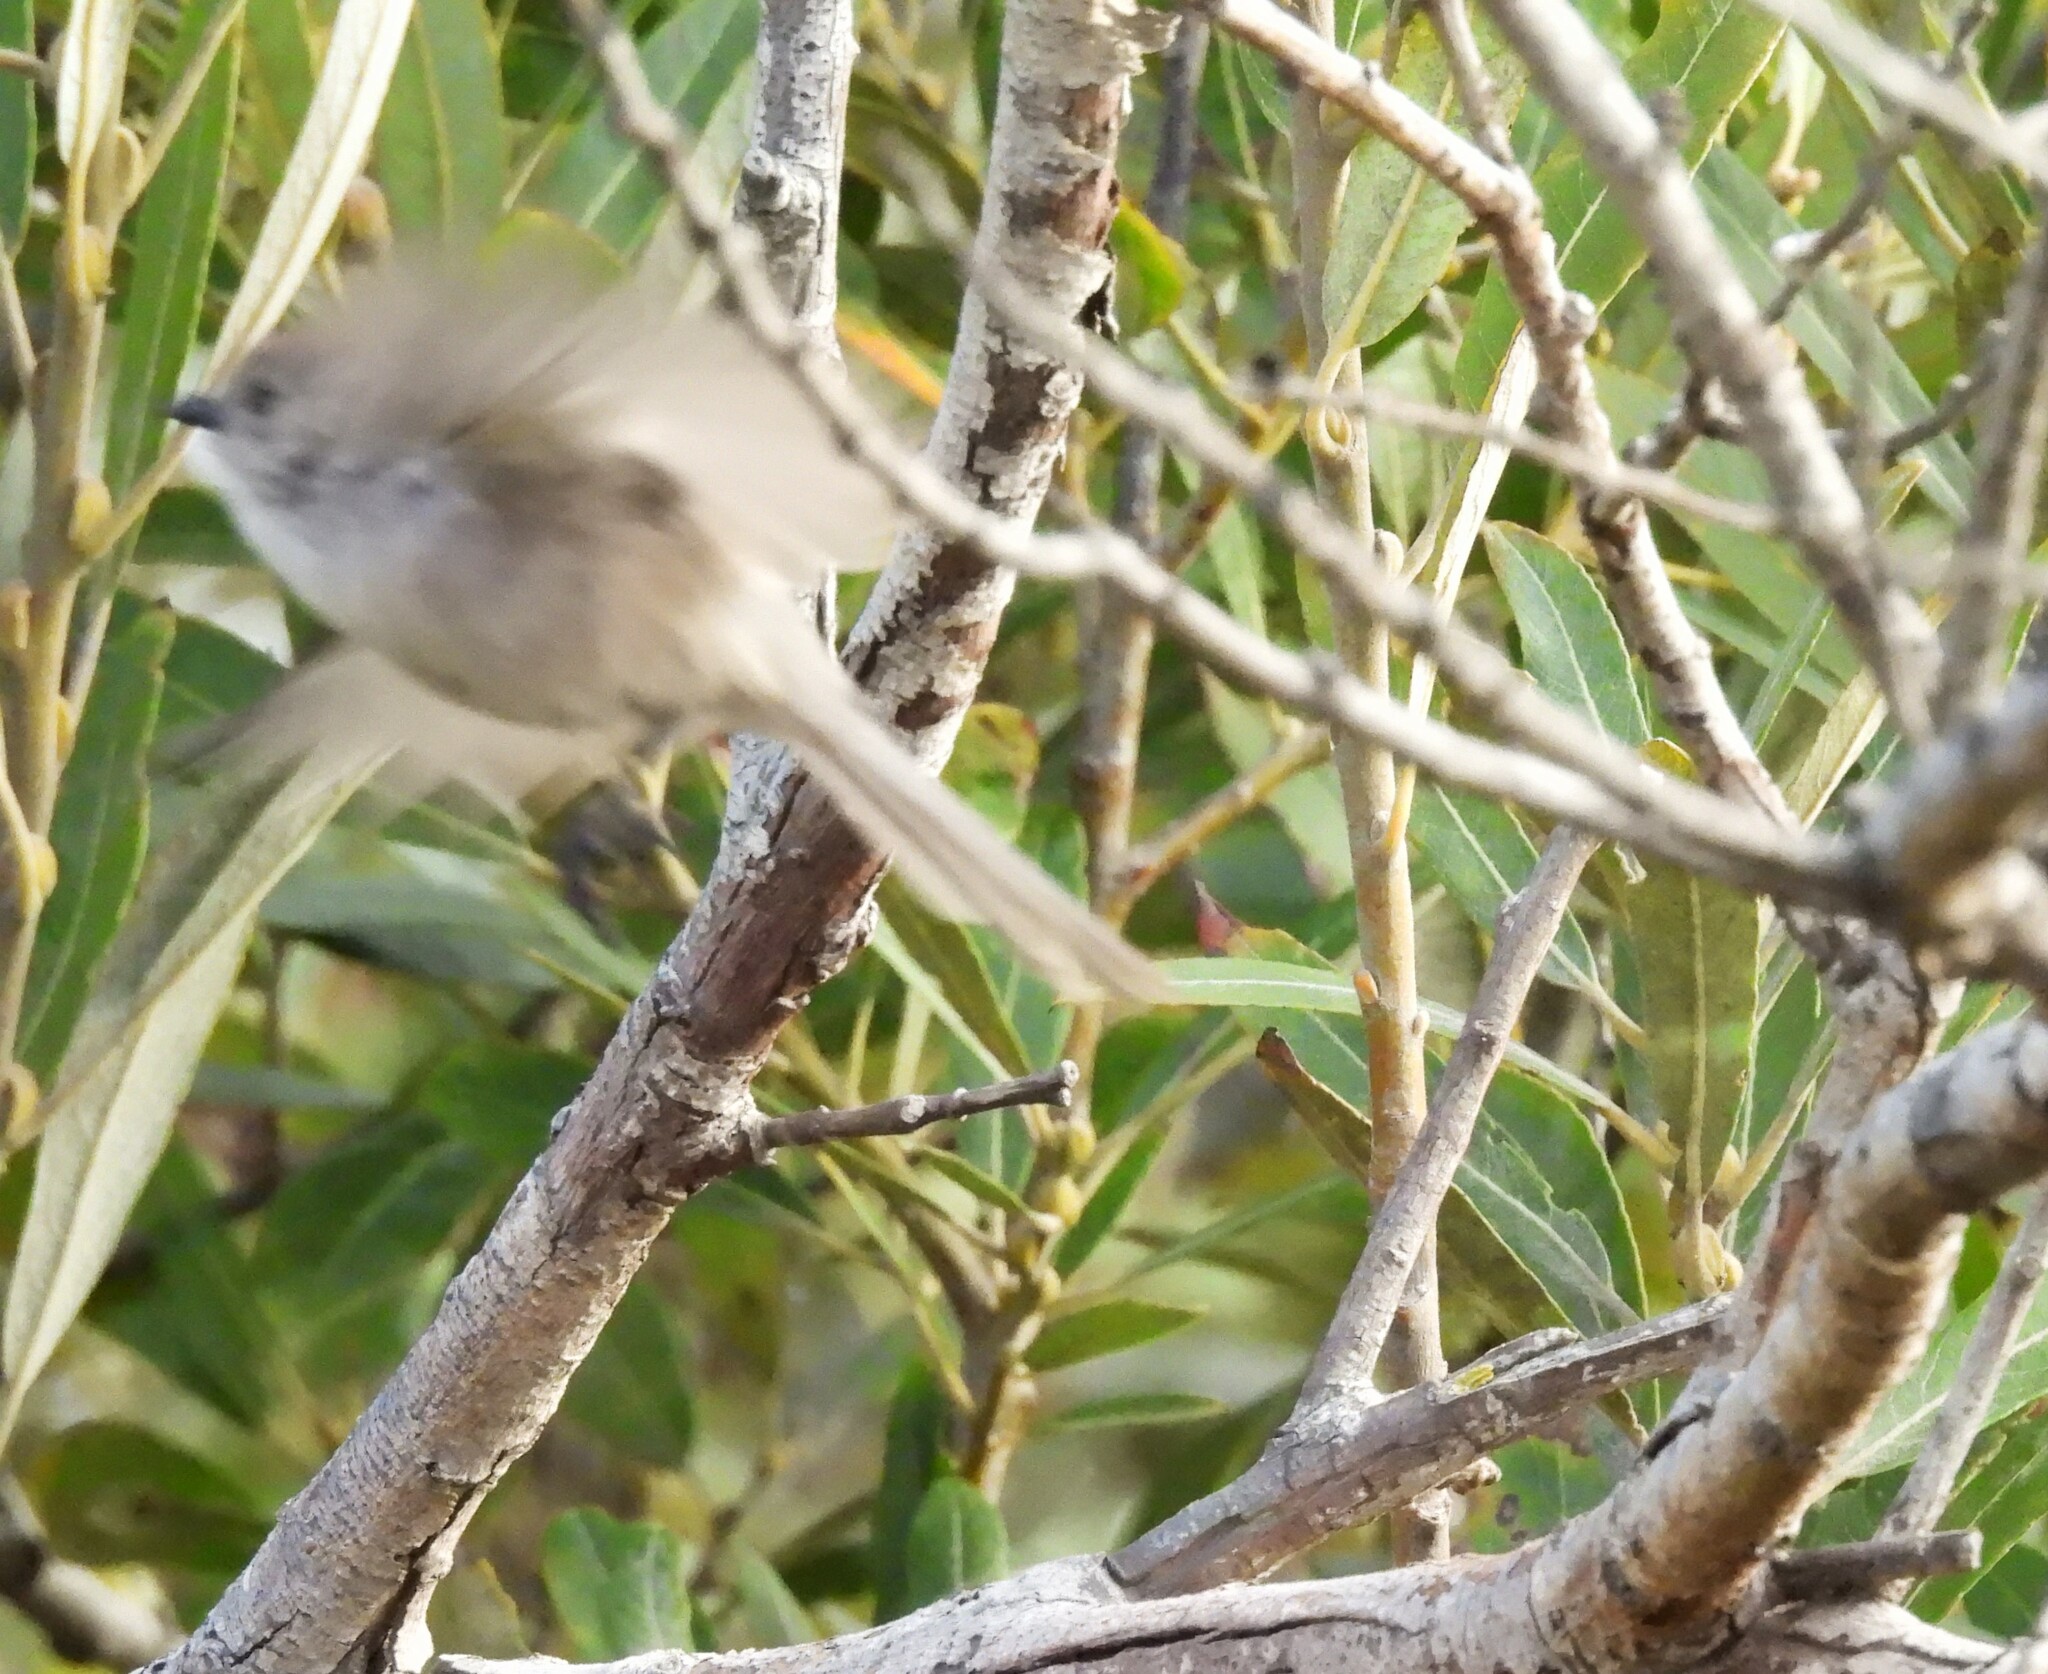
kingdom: Animalia
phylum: Chordata
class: Aves
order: Passeriformes
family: Aegithalidae
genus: Psaltriparus
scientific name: Psaltriparus minimus
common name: American bushtit
